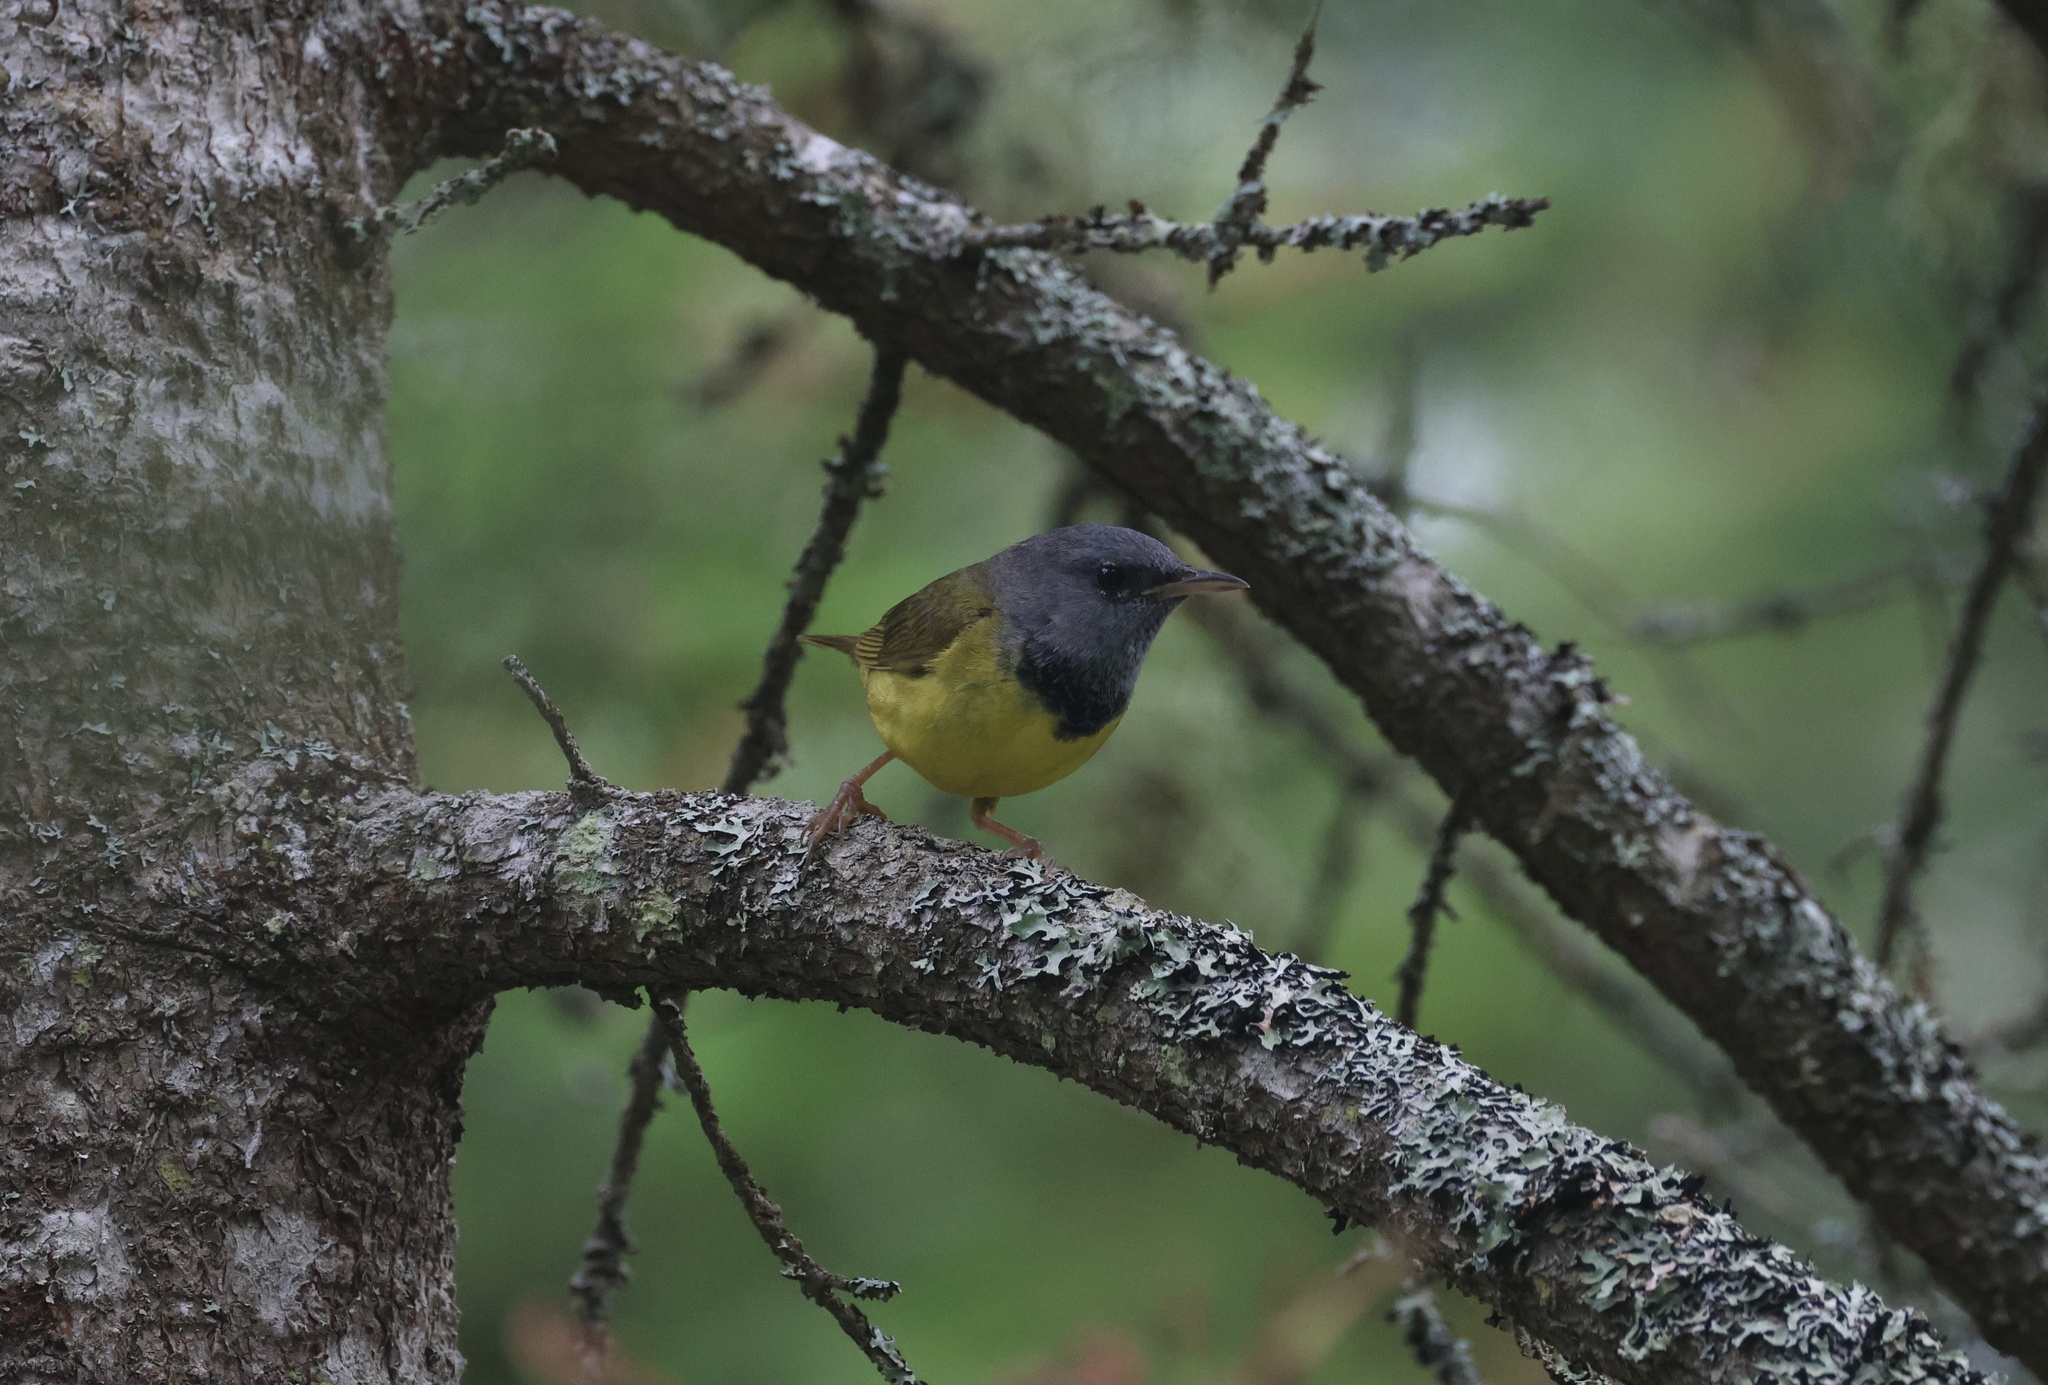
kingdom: Animalia
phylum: Chordata
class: Aves
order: Passeriformes
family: Parulidae
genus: Geothlypis
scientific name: Geothlypis philadelphia
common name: Mourning warbler
